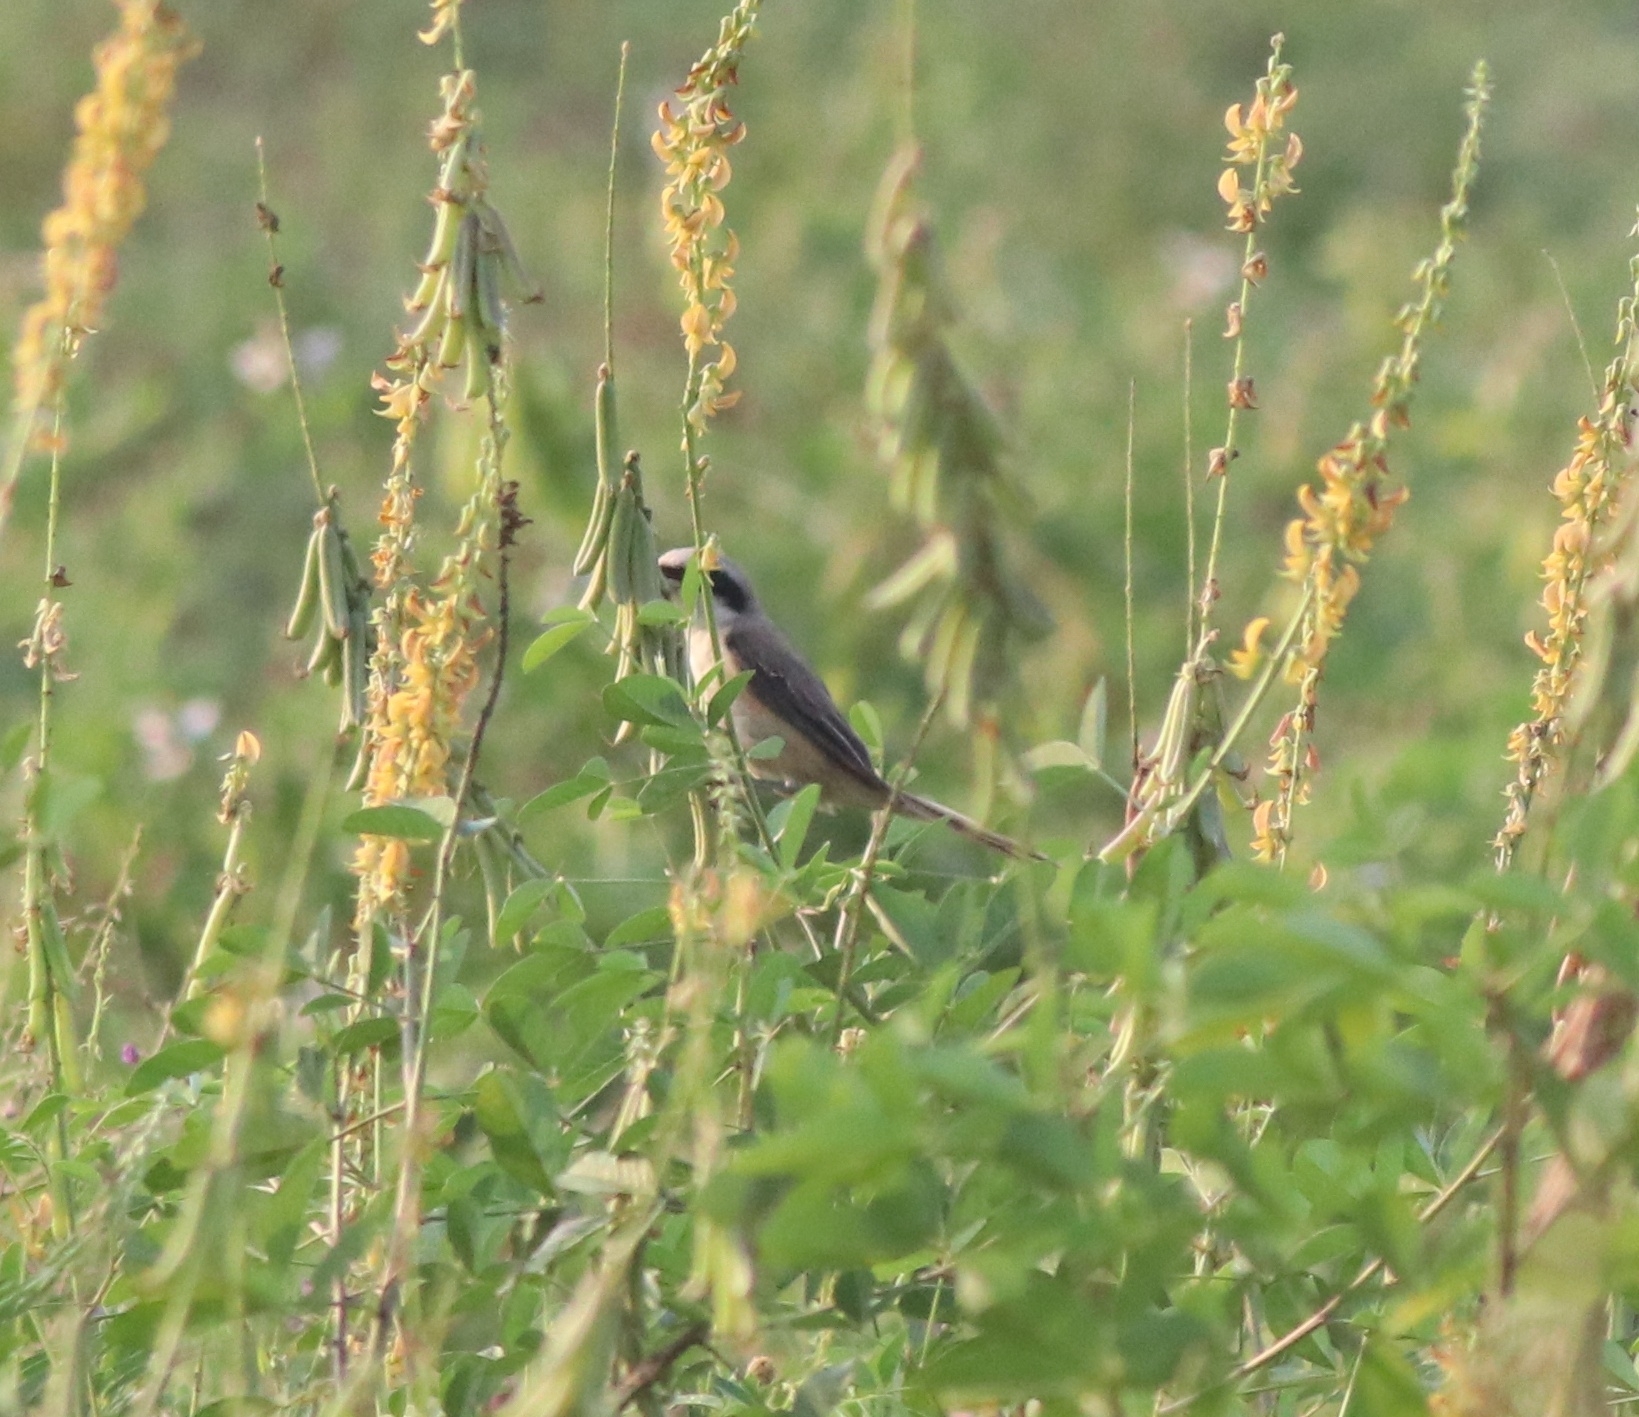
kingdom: Animalia
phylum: Chordata
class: Aves
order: Passeriformes
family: Laniidae
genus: Lanius
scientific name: Lanius schach
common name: Long-tailed shrike
